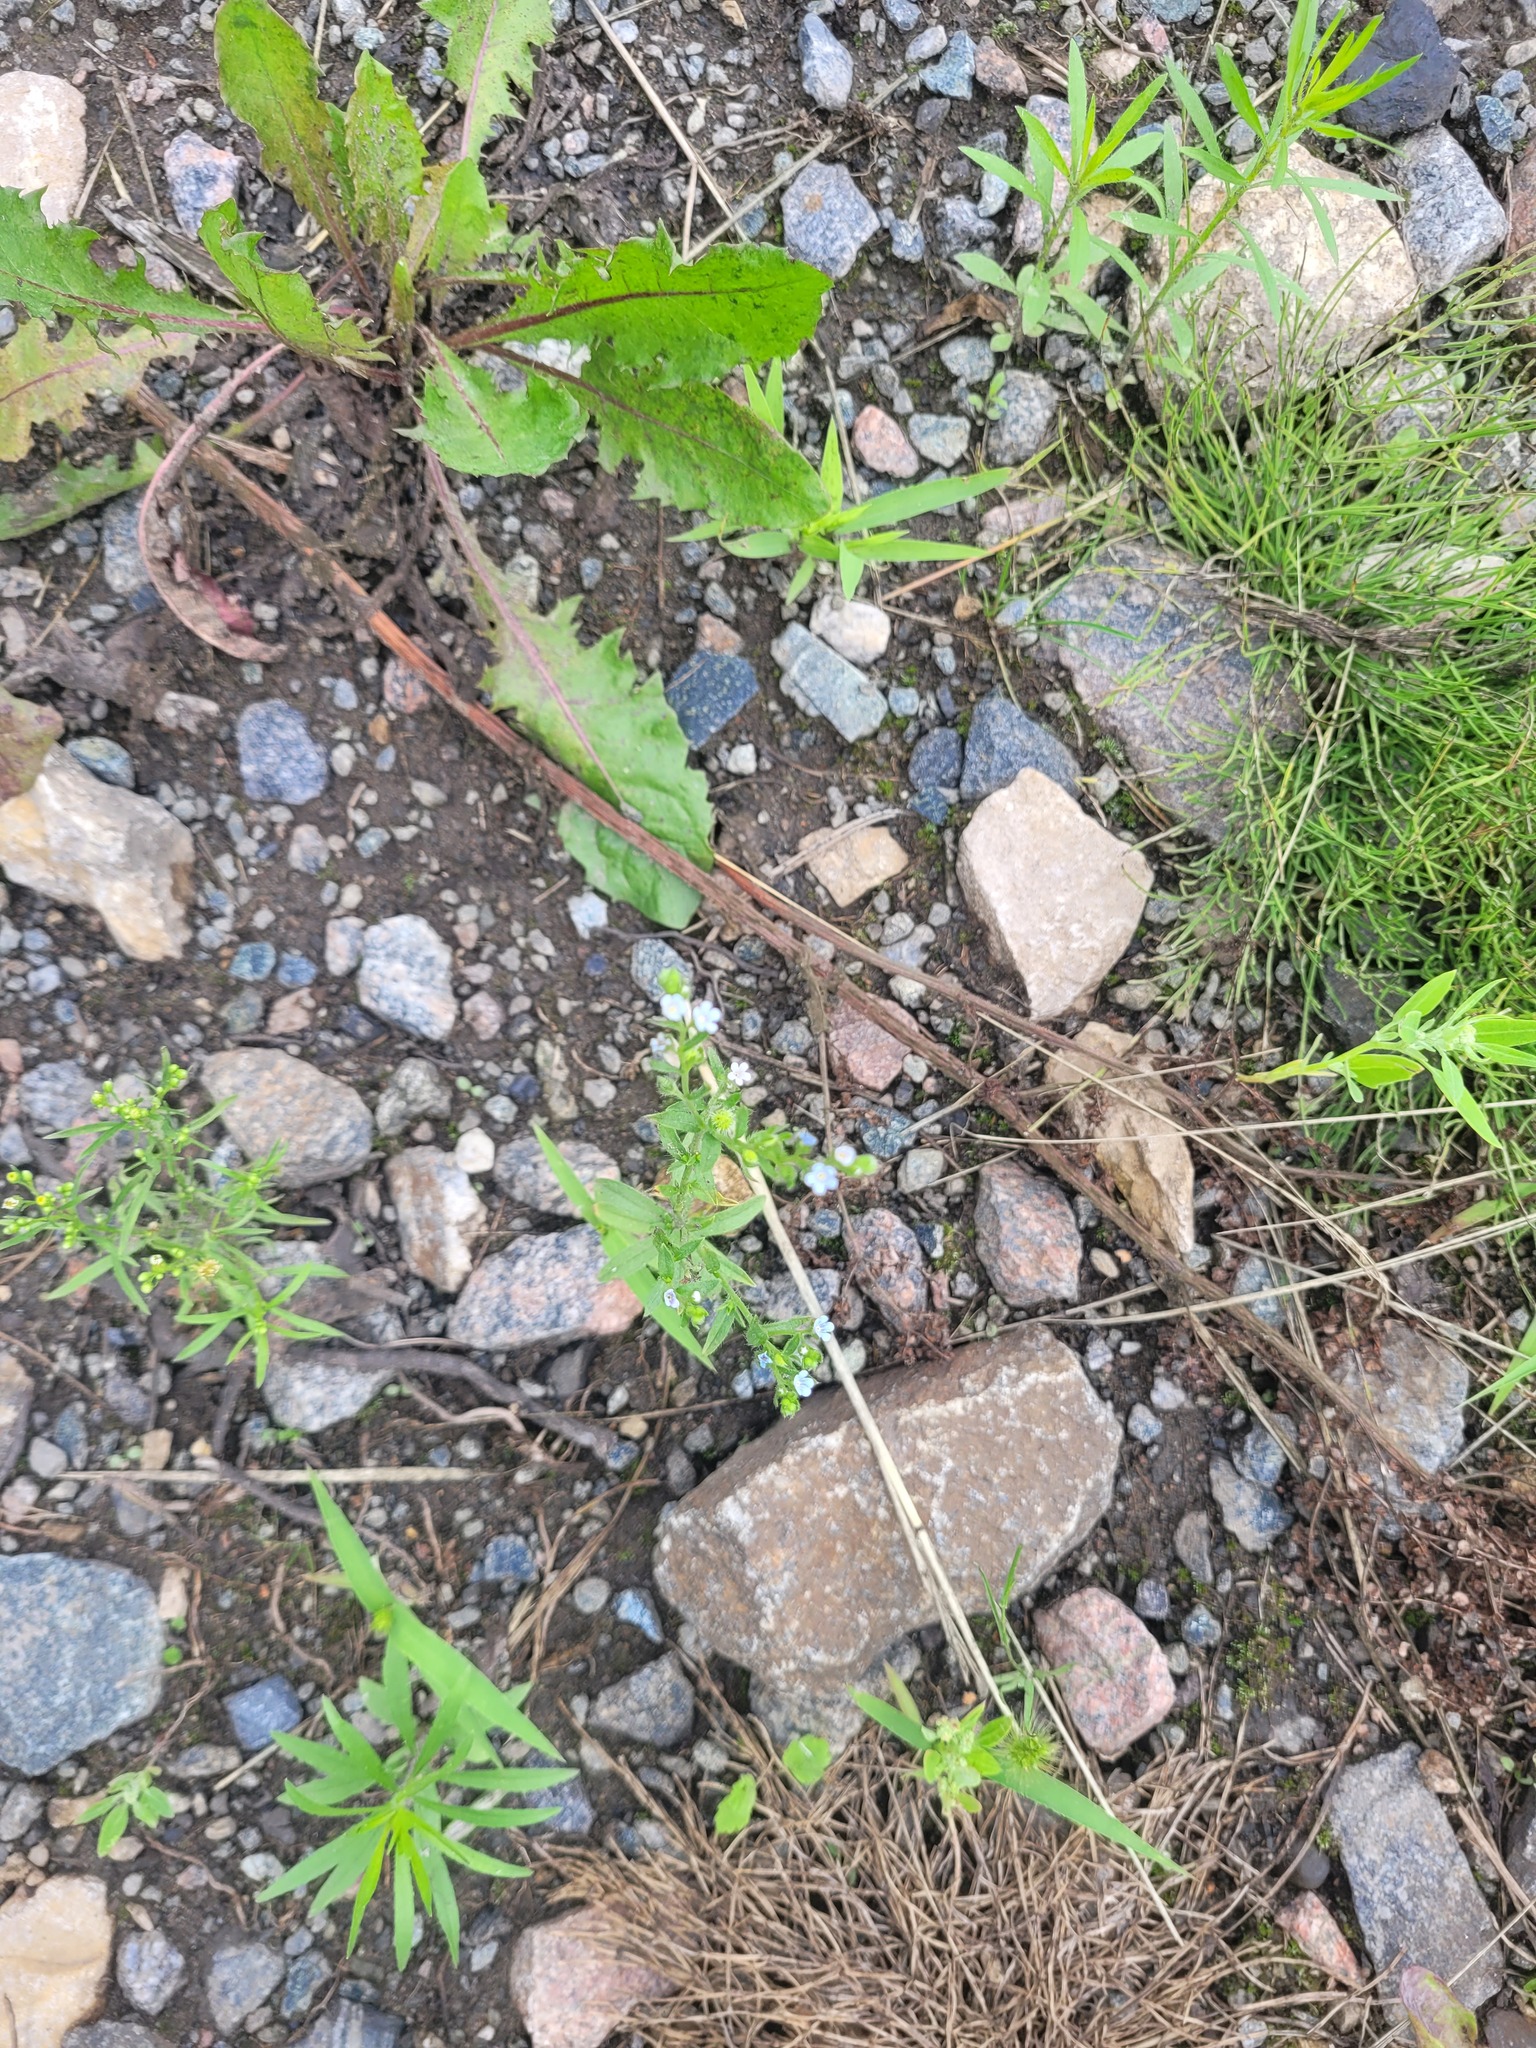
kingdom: Plantae
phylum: Tracheophyta
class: Magnoliopsida
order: Boraginales
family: Boraginaceae
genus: Lappula
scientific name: Lappula squarrosa
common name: European stickseed
